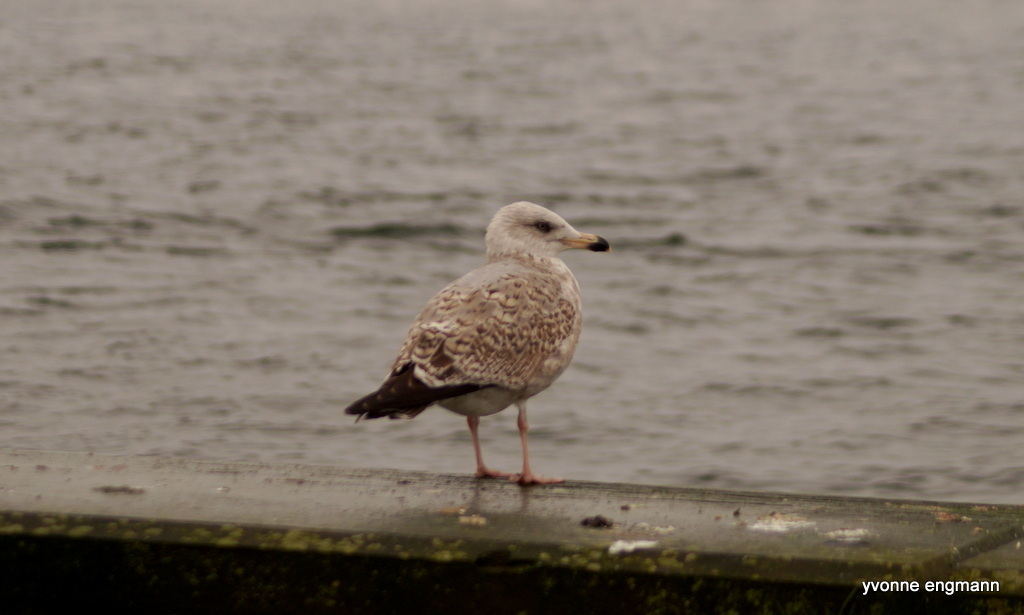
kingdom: Animalia
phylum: Chordata
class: Aves
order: Charadriiformes
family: Laridae
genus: Larus
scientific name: Larus argentatus
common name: Herring gull
